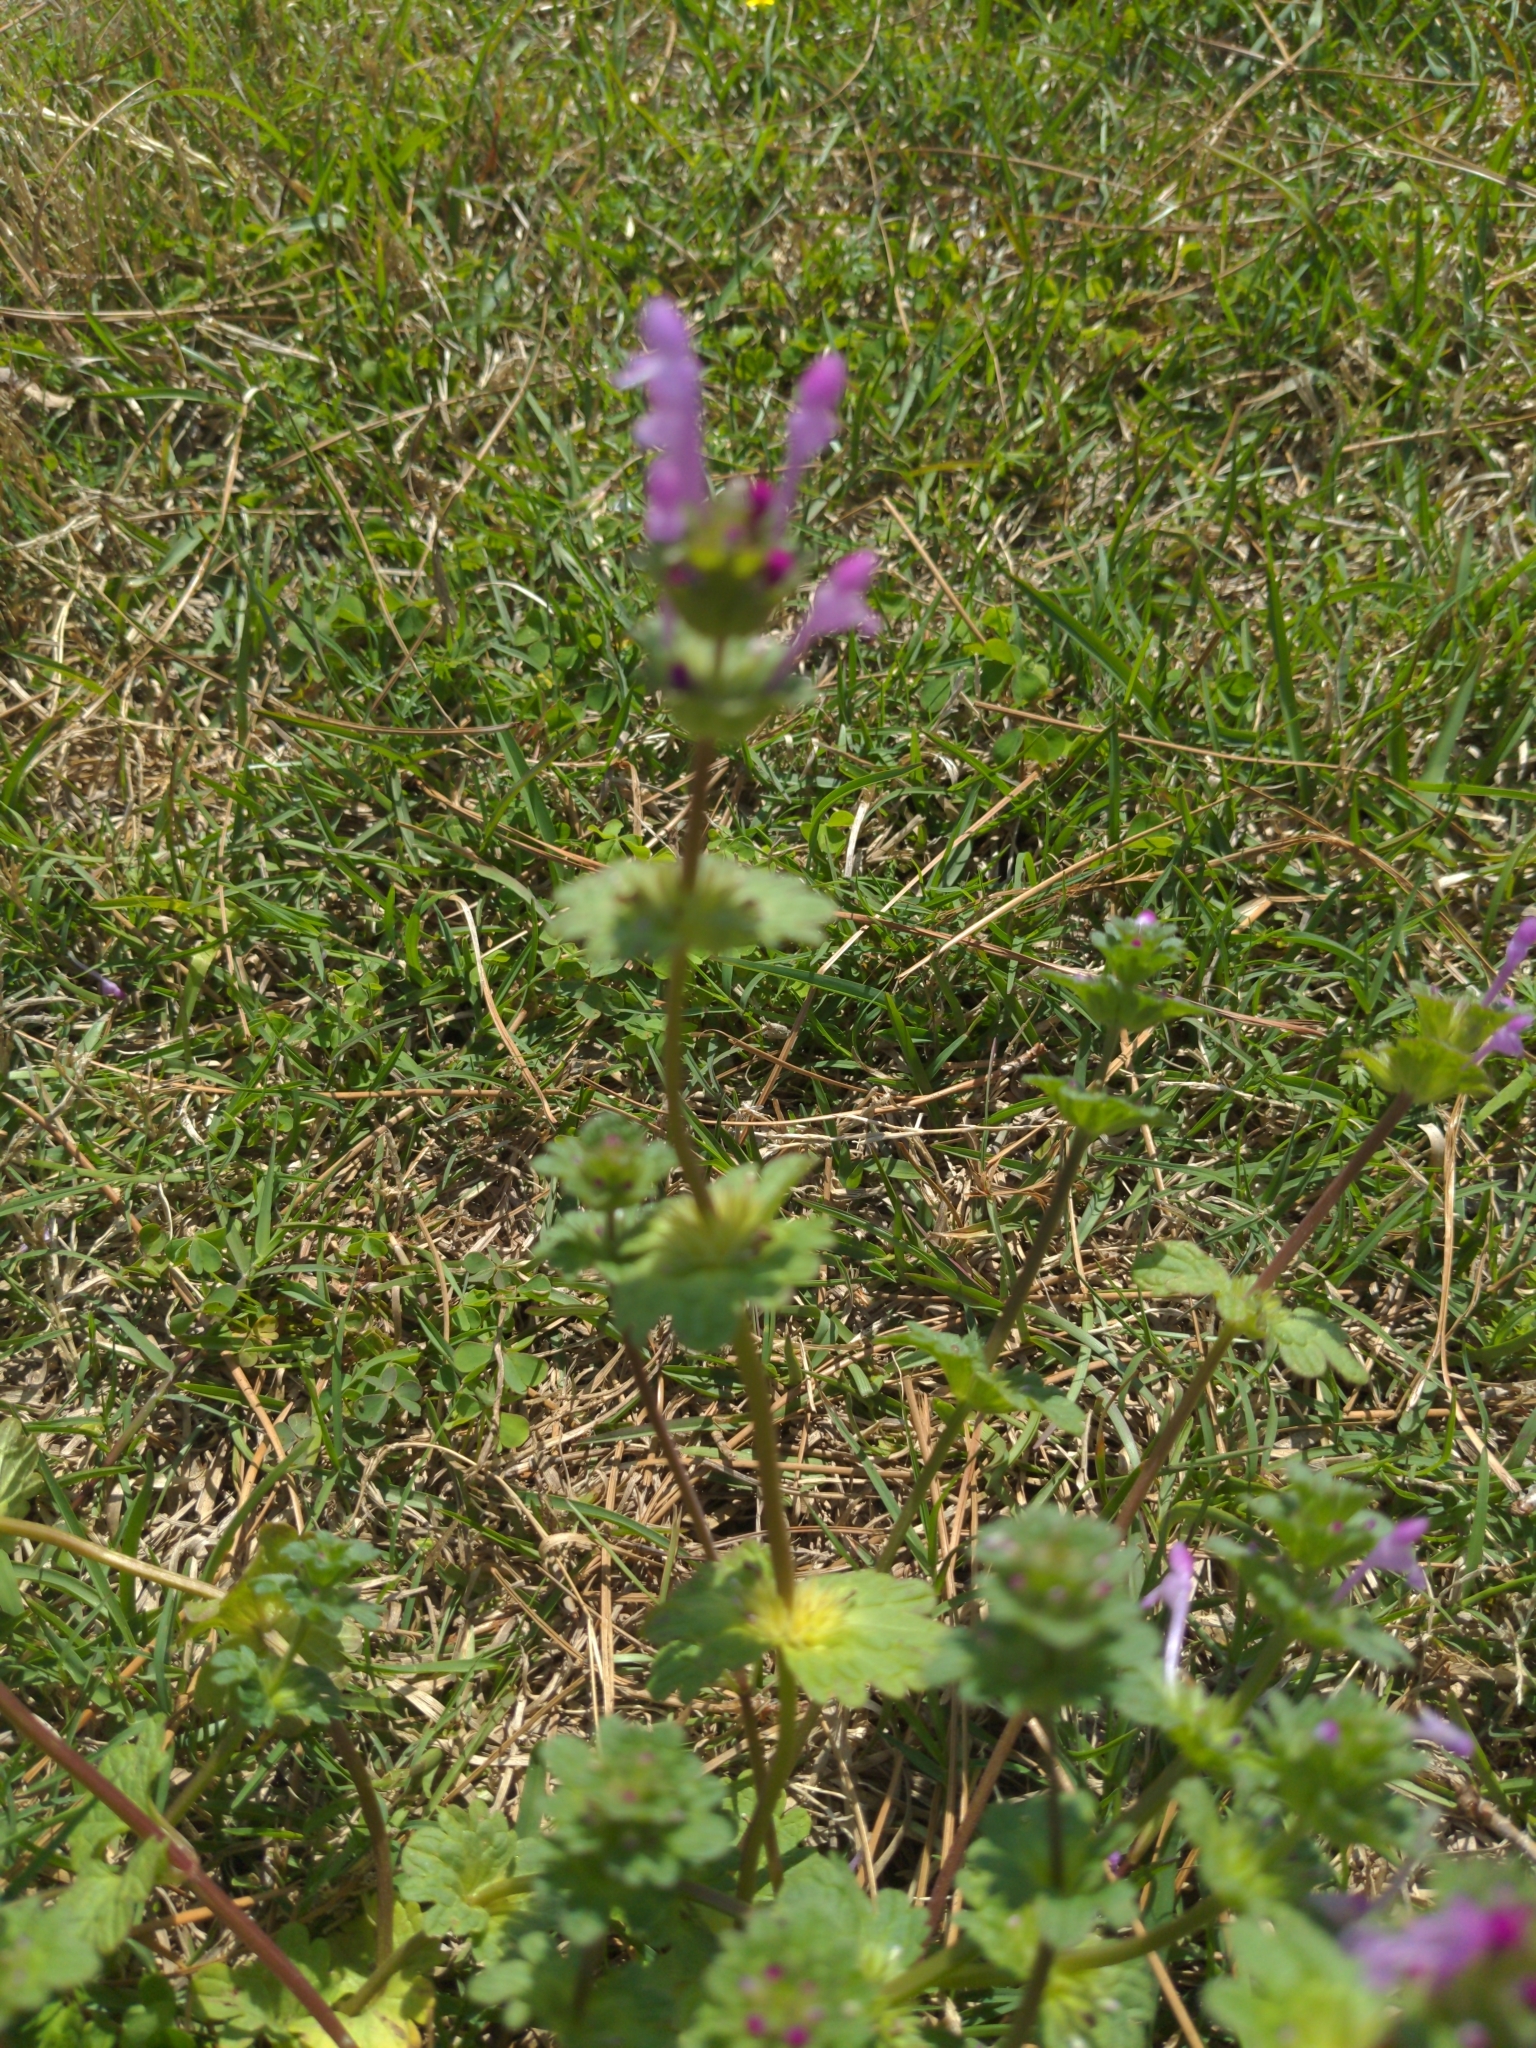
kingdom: Plantae
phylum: Tracheophyta
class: Magnoliopsida
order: Lamiales
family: Lamiaceae
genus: Lamium
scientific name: Lamium amplexicaule
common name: Henbit dead-nettle
